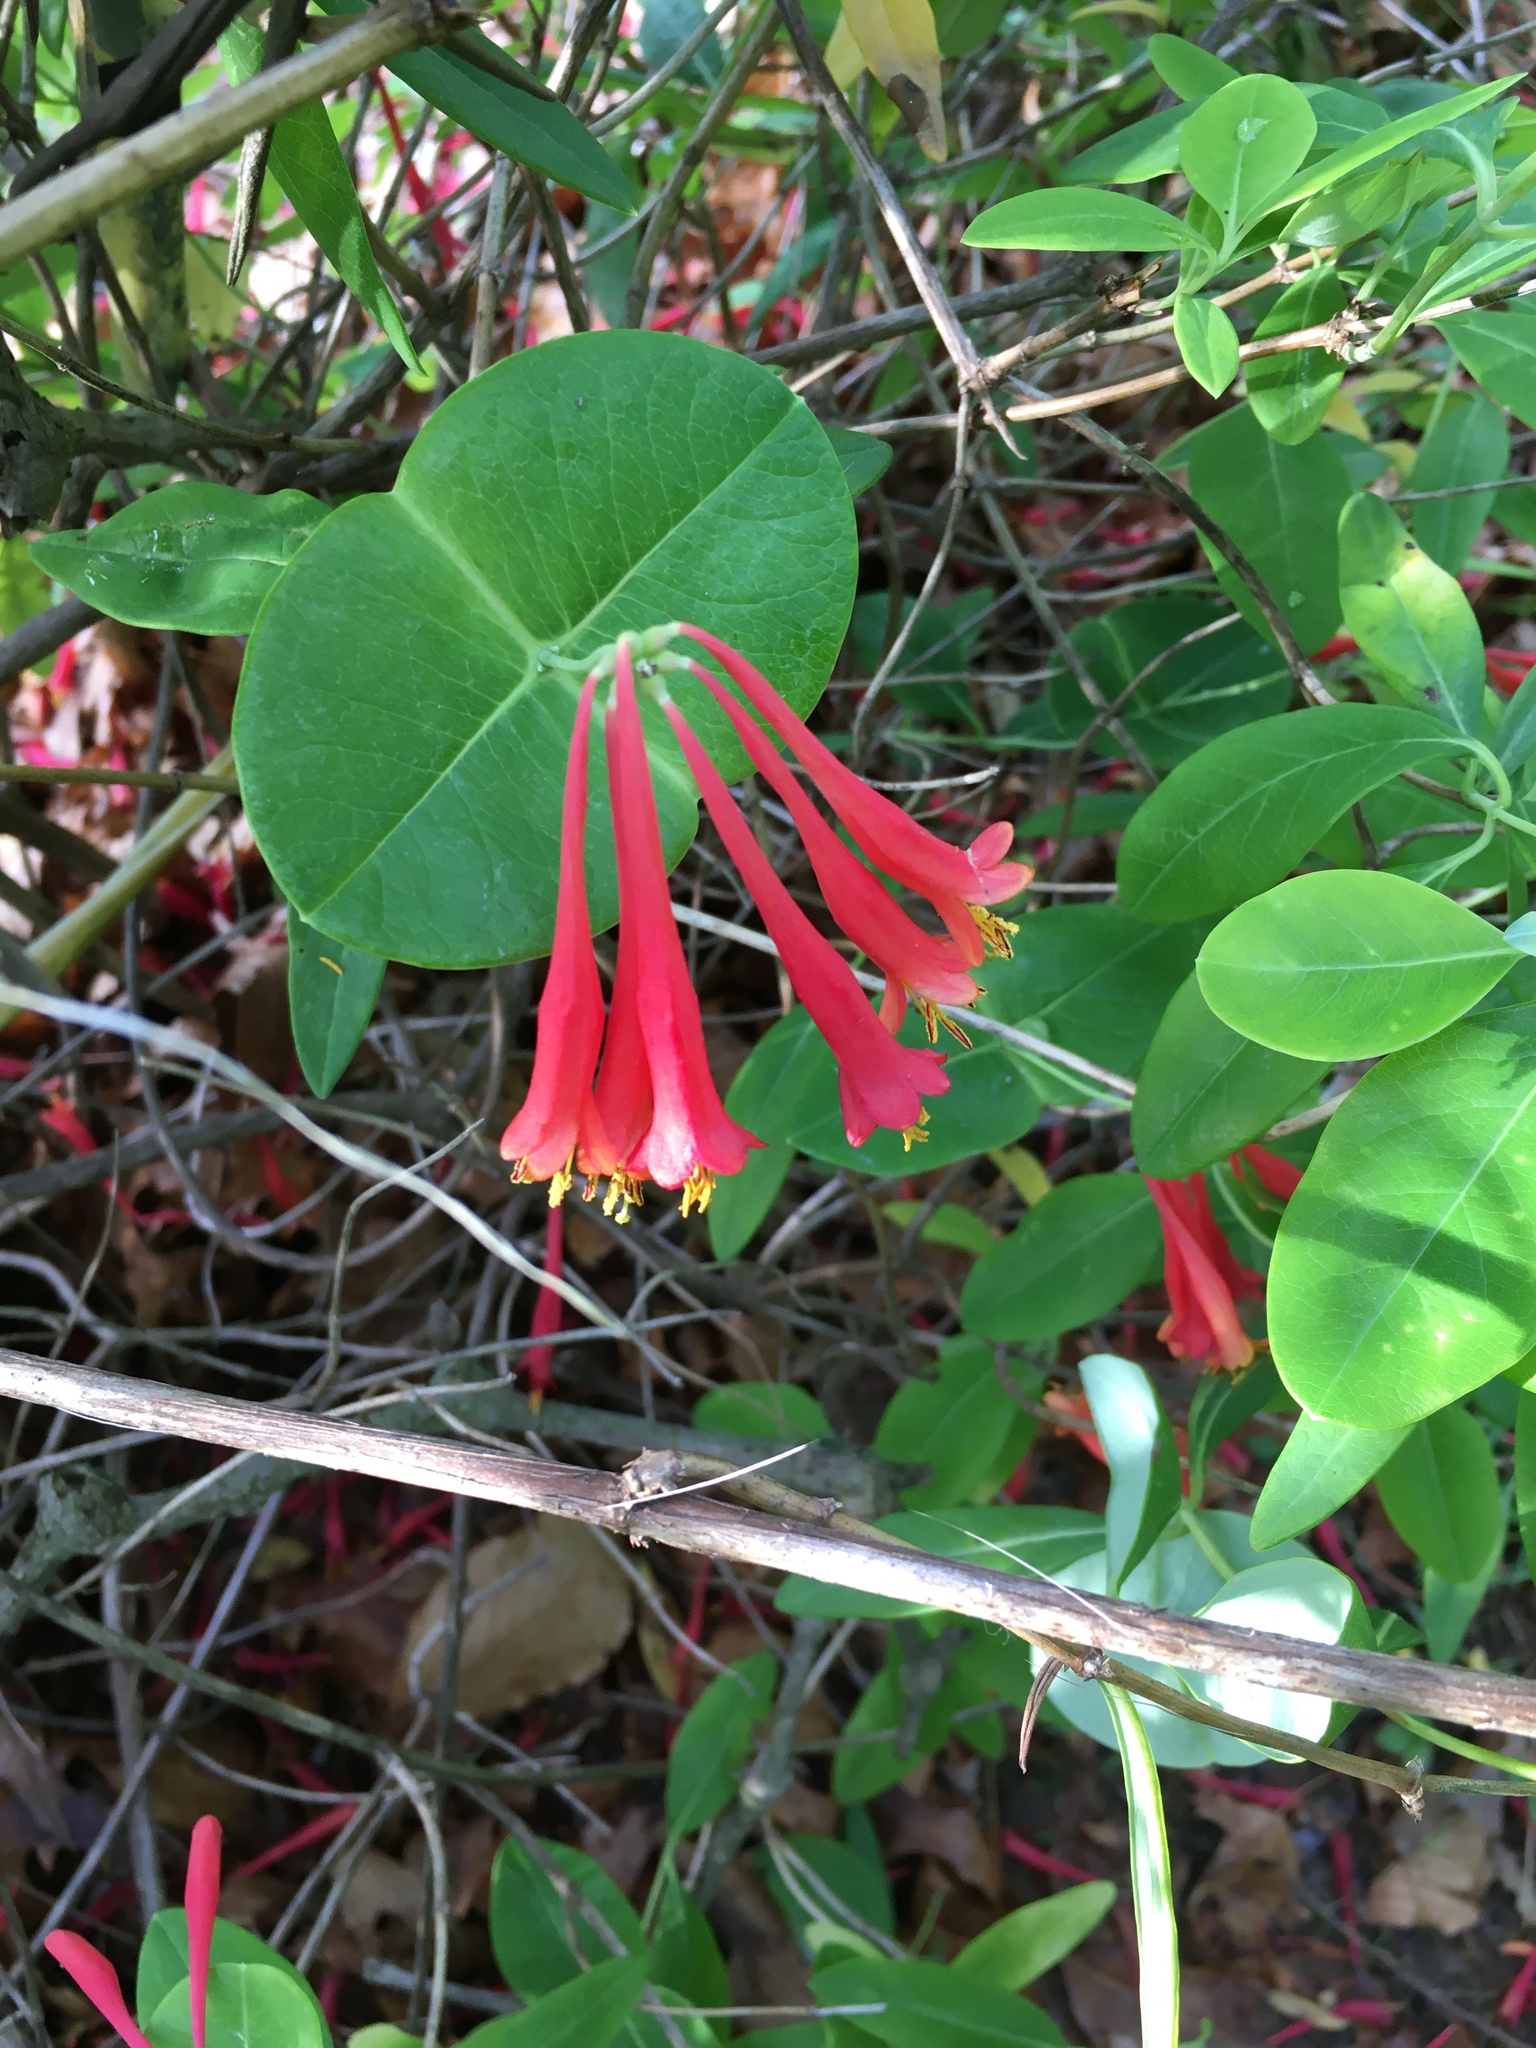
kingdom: Plantae
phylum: Tracheophyta
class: Magnoliopsida
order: Dipsacales
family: Caprifoliaceae
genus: Lonicera
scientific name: Lonicera sempervirens
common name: Coral honeysuckle
